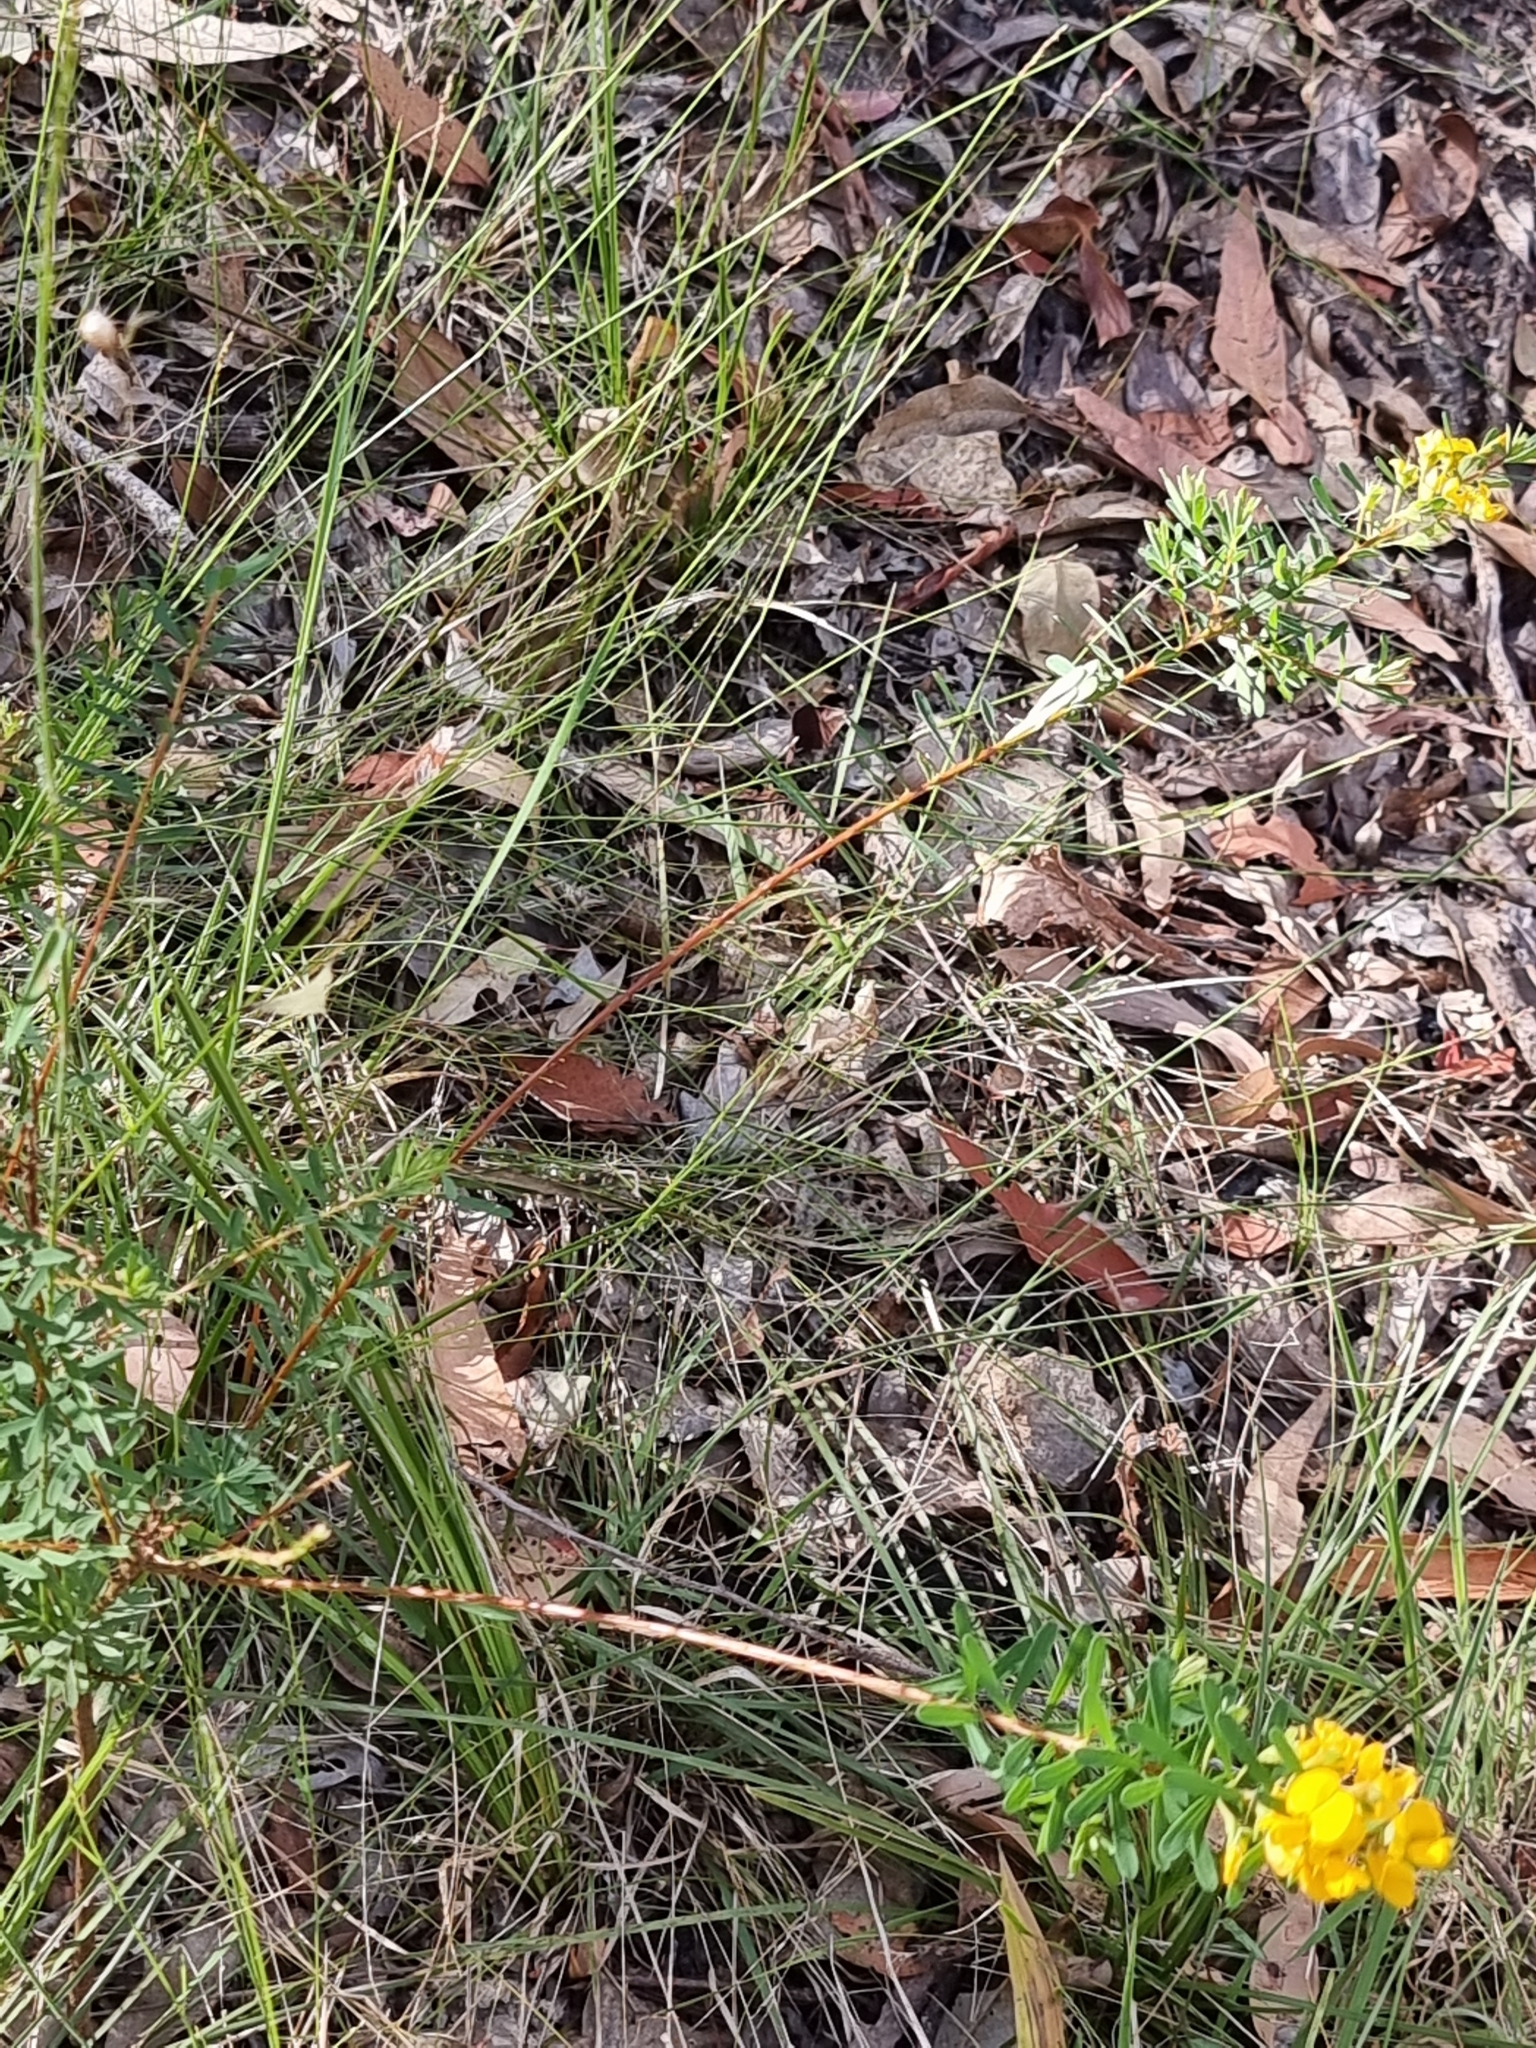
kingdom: Plantae
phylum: Tracheophyta
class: Magnoliopsida
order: Fabales
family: Fabaceae
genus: Pultenaea
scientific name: Pultenaea euchila
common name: Large-flower bush-pea
